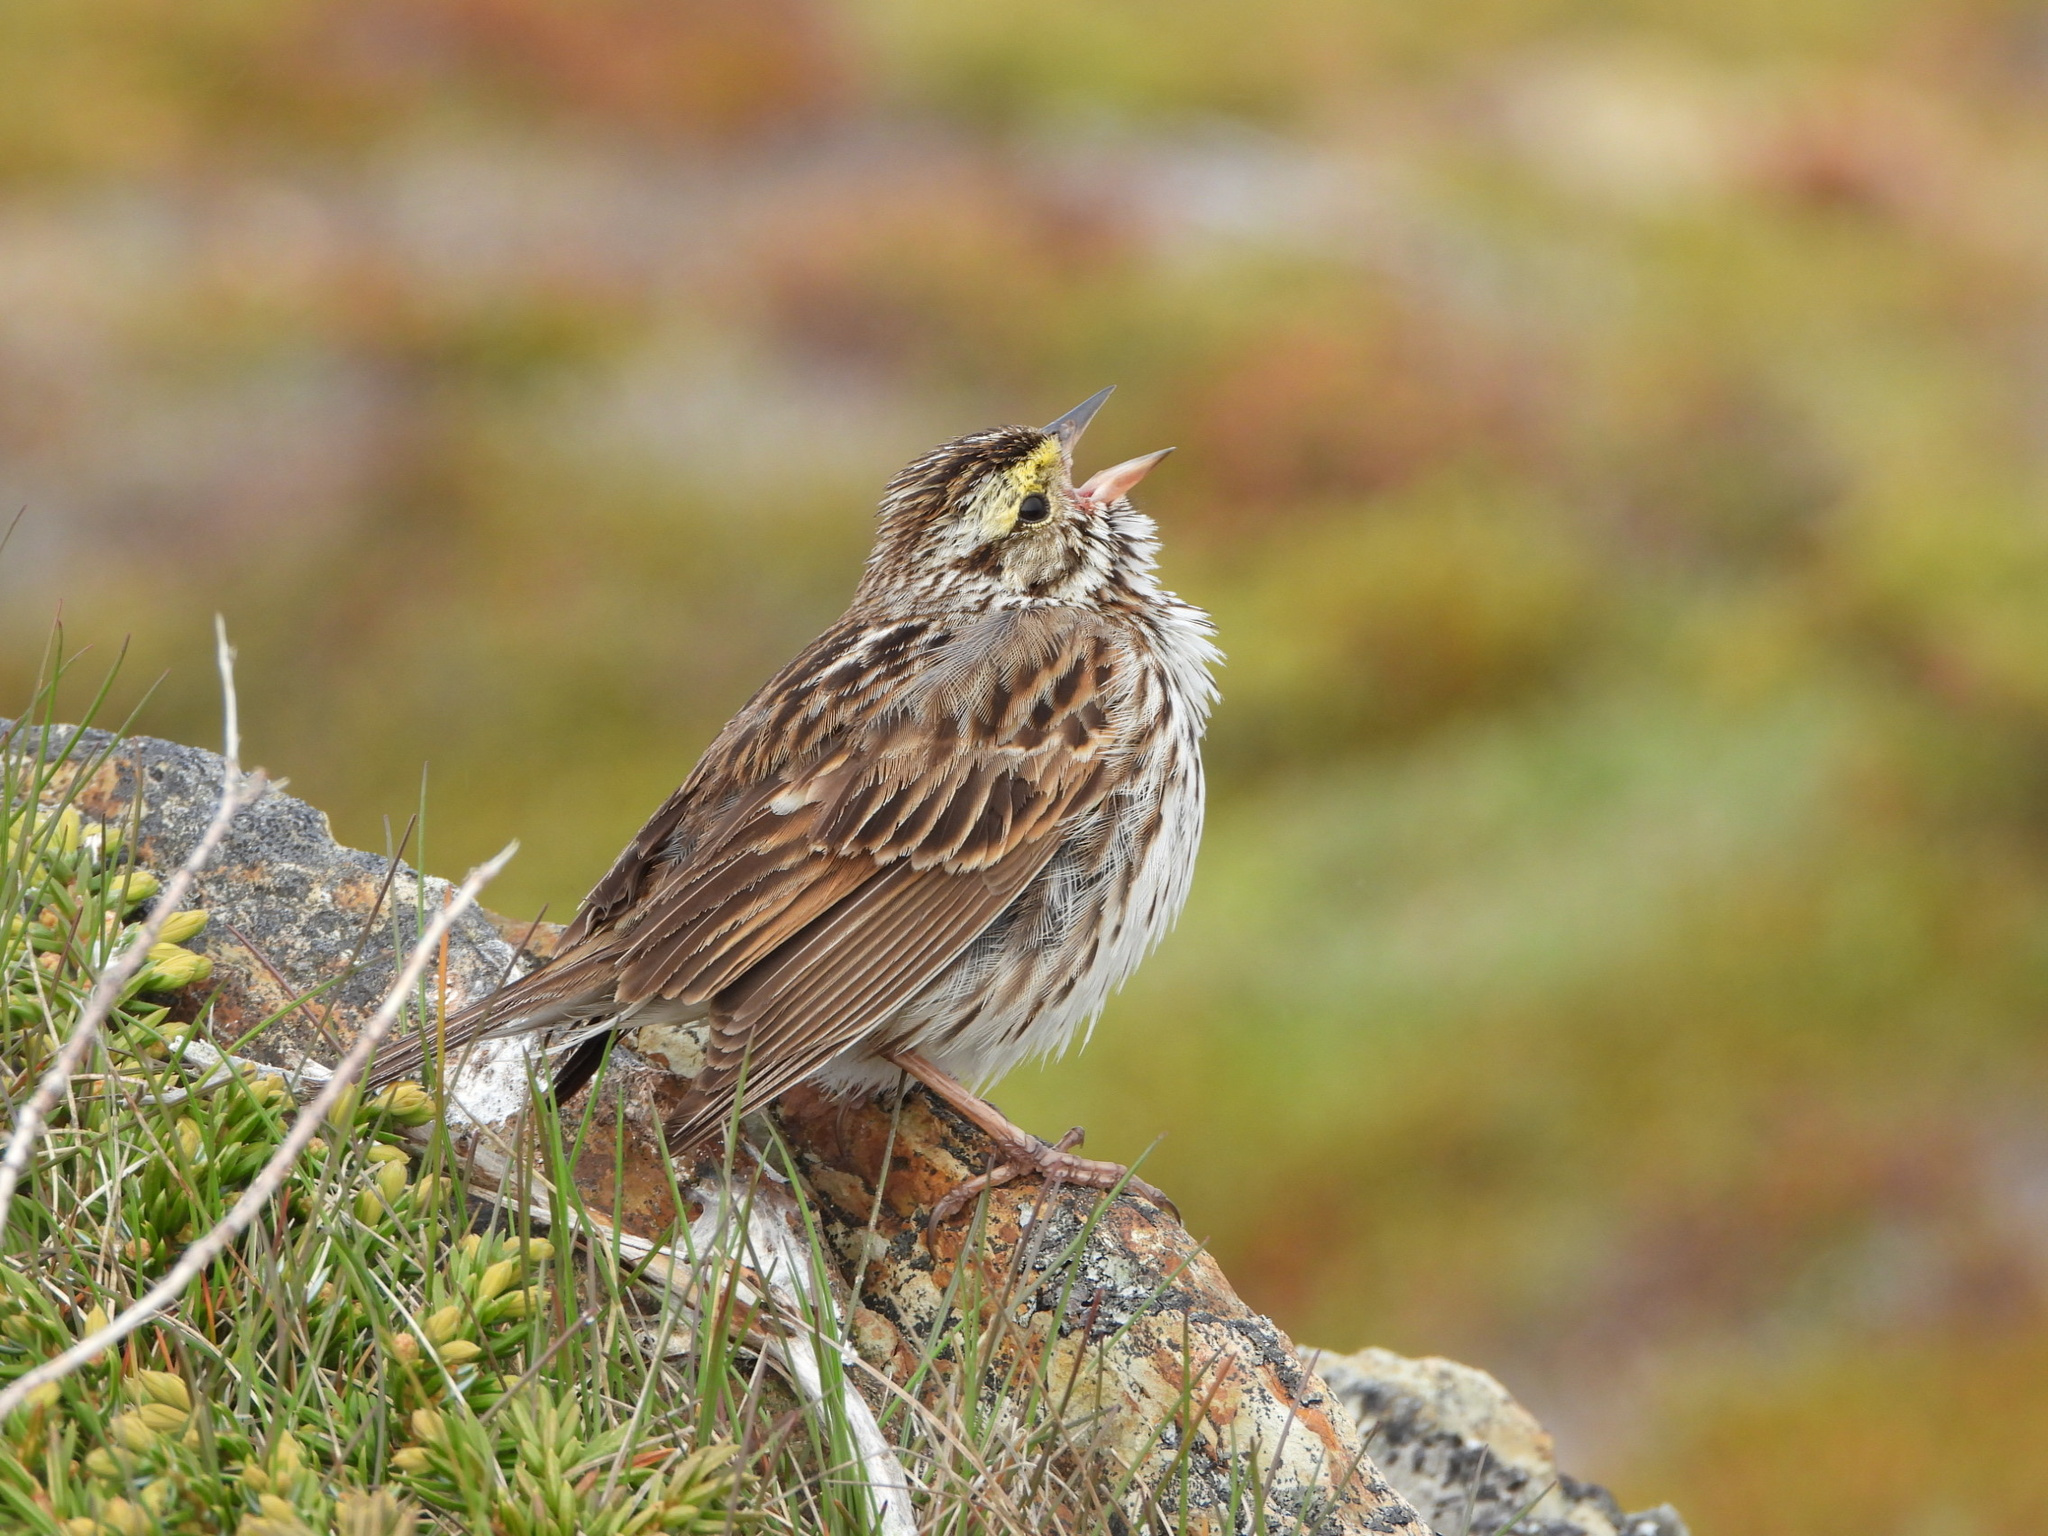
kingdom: Animalia
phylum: Chordata
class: Aves
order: Passeriformes
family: Passerellidae
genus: Passerculus
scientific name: Passerculus sandwichensis
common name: Savannah sparrow
